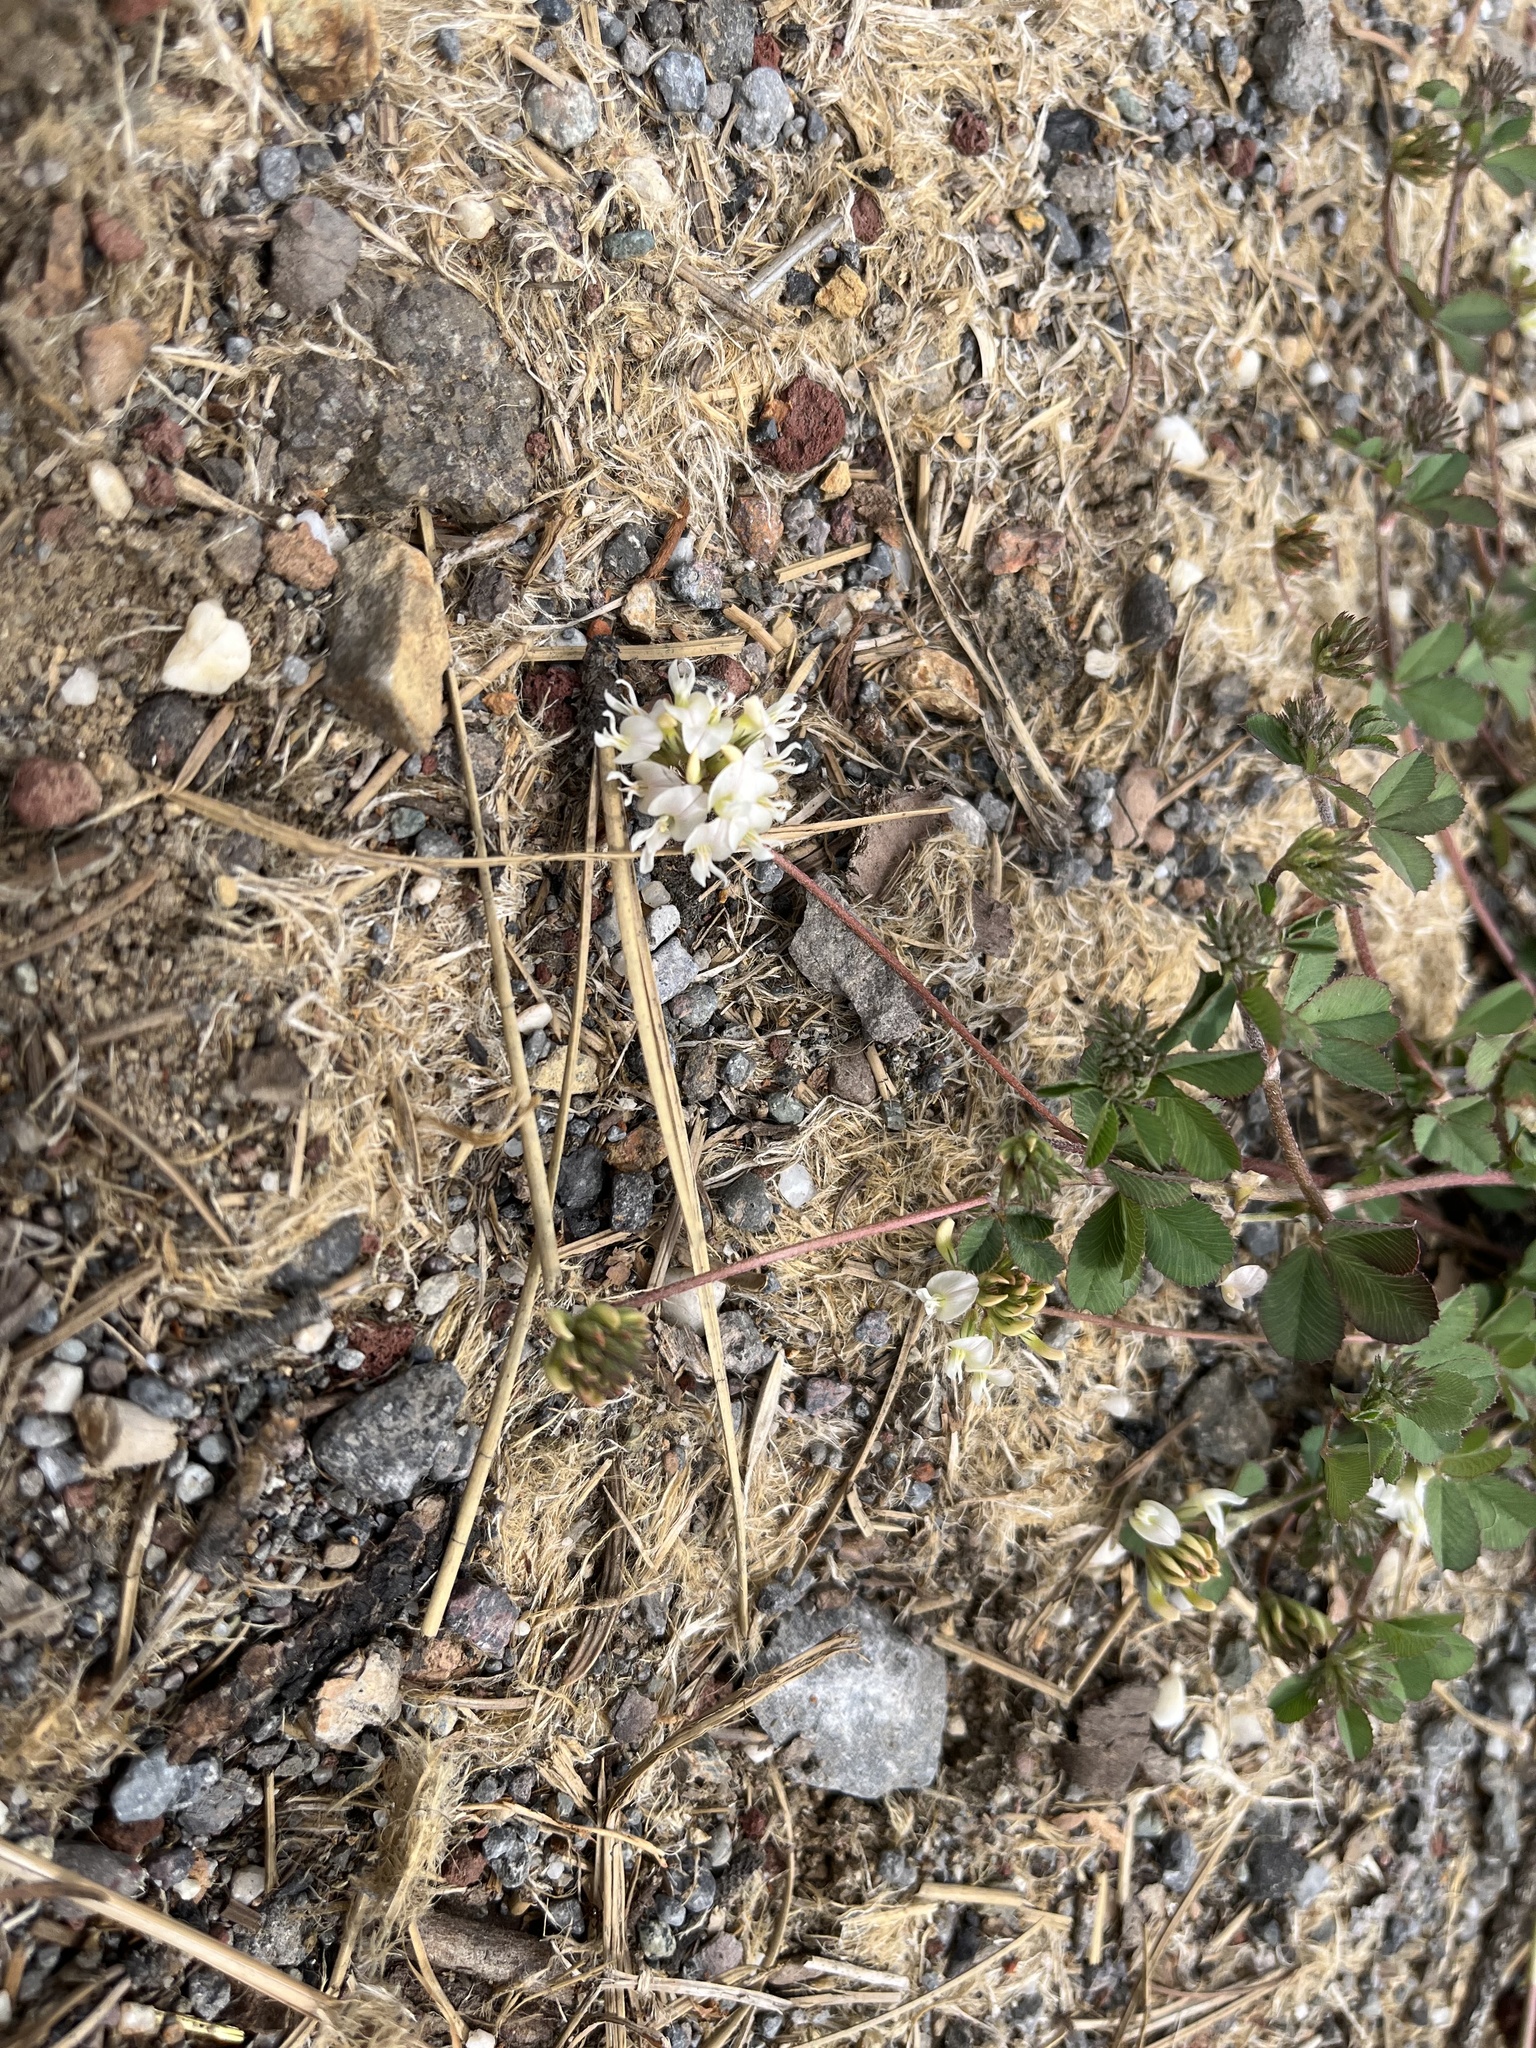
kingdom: Plantae
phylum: Tracheophyta
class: Magnoliopsida
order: Fabales
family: Fabaceae
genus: Trifolium
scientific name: Trifolium breweri
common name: Forest clover
